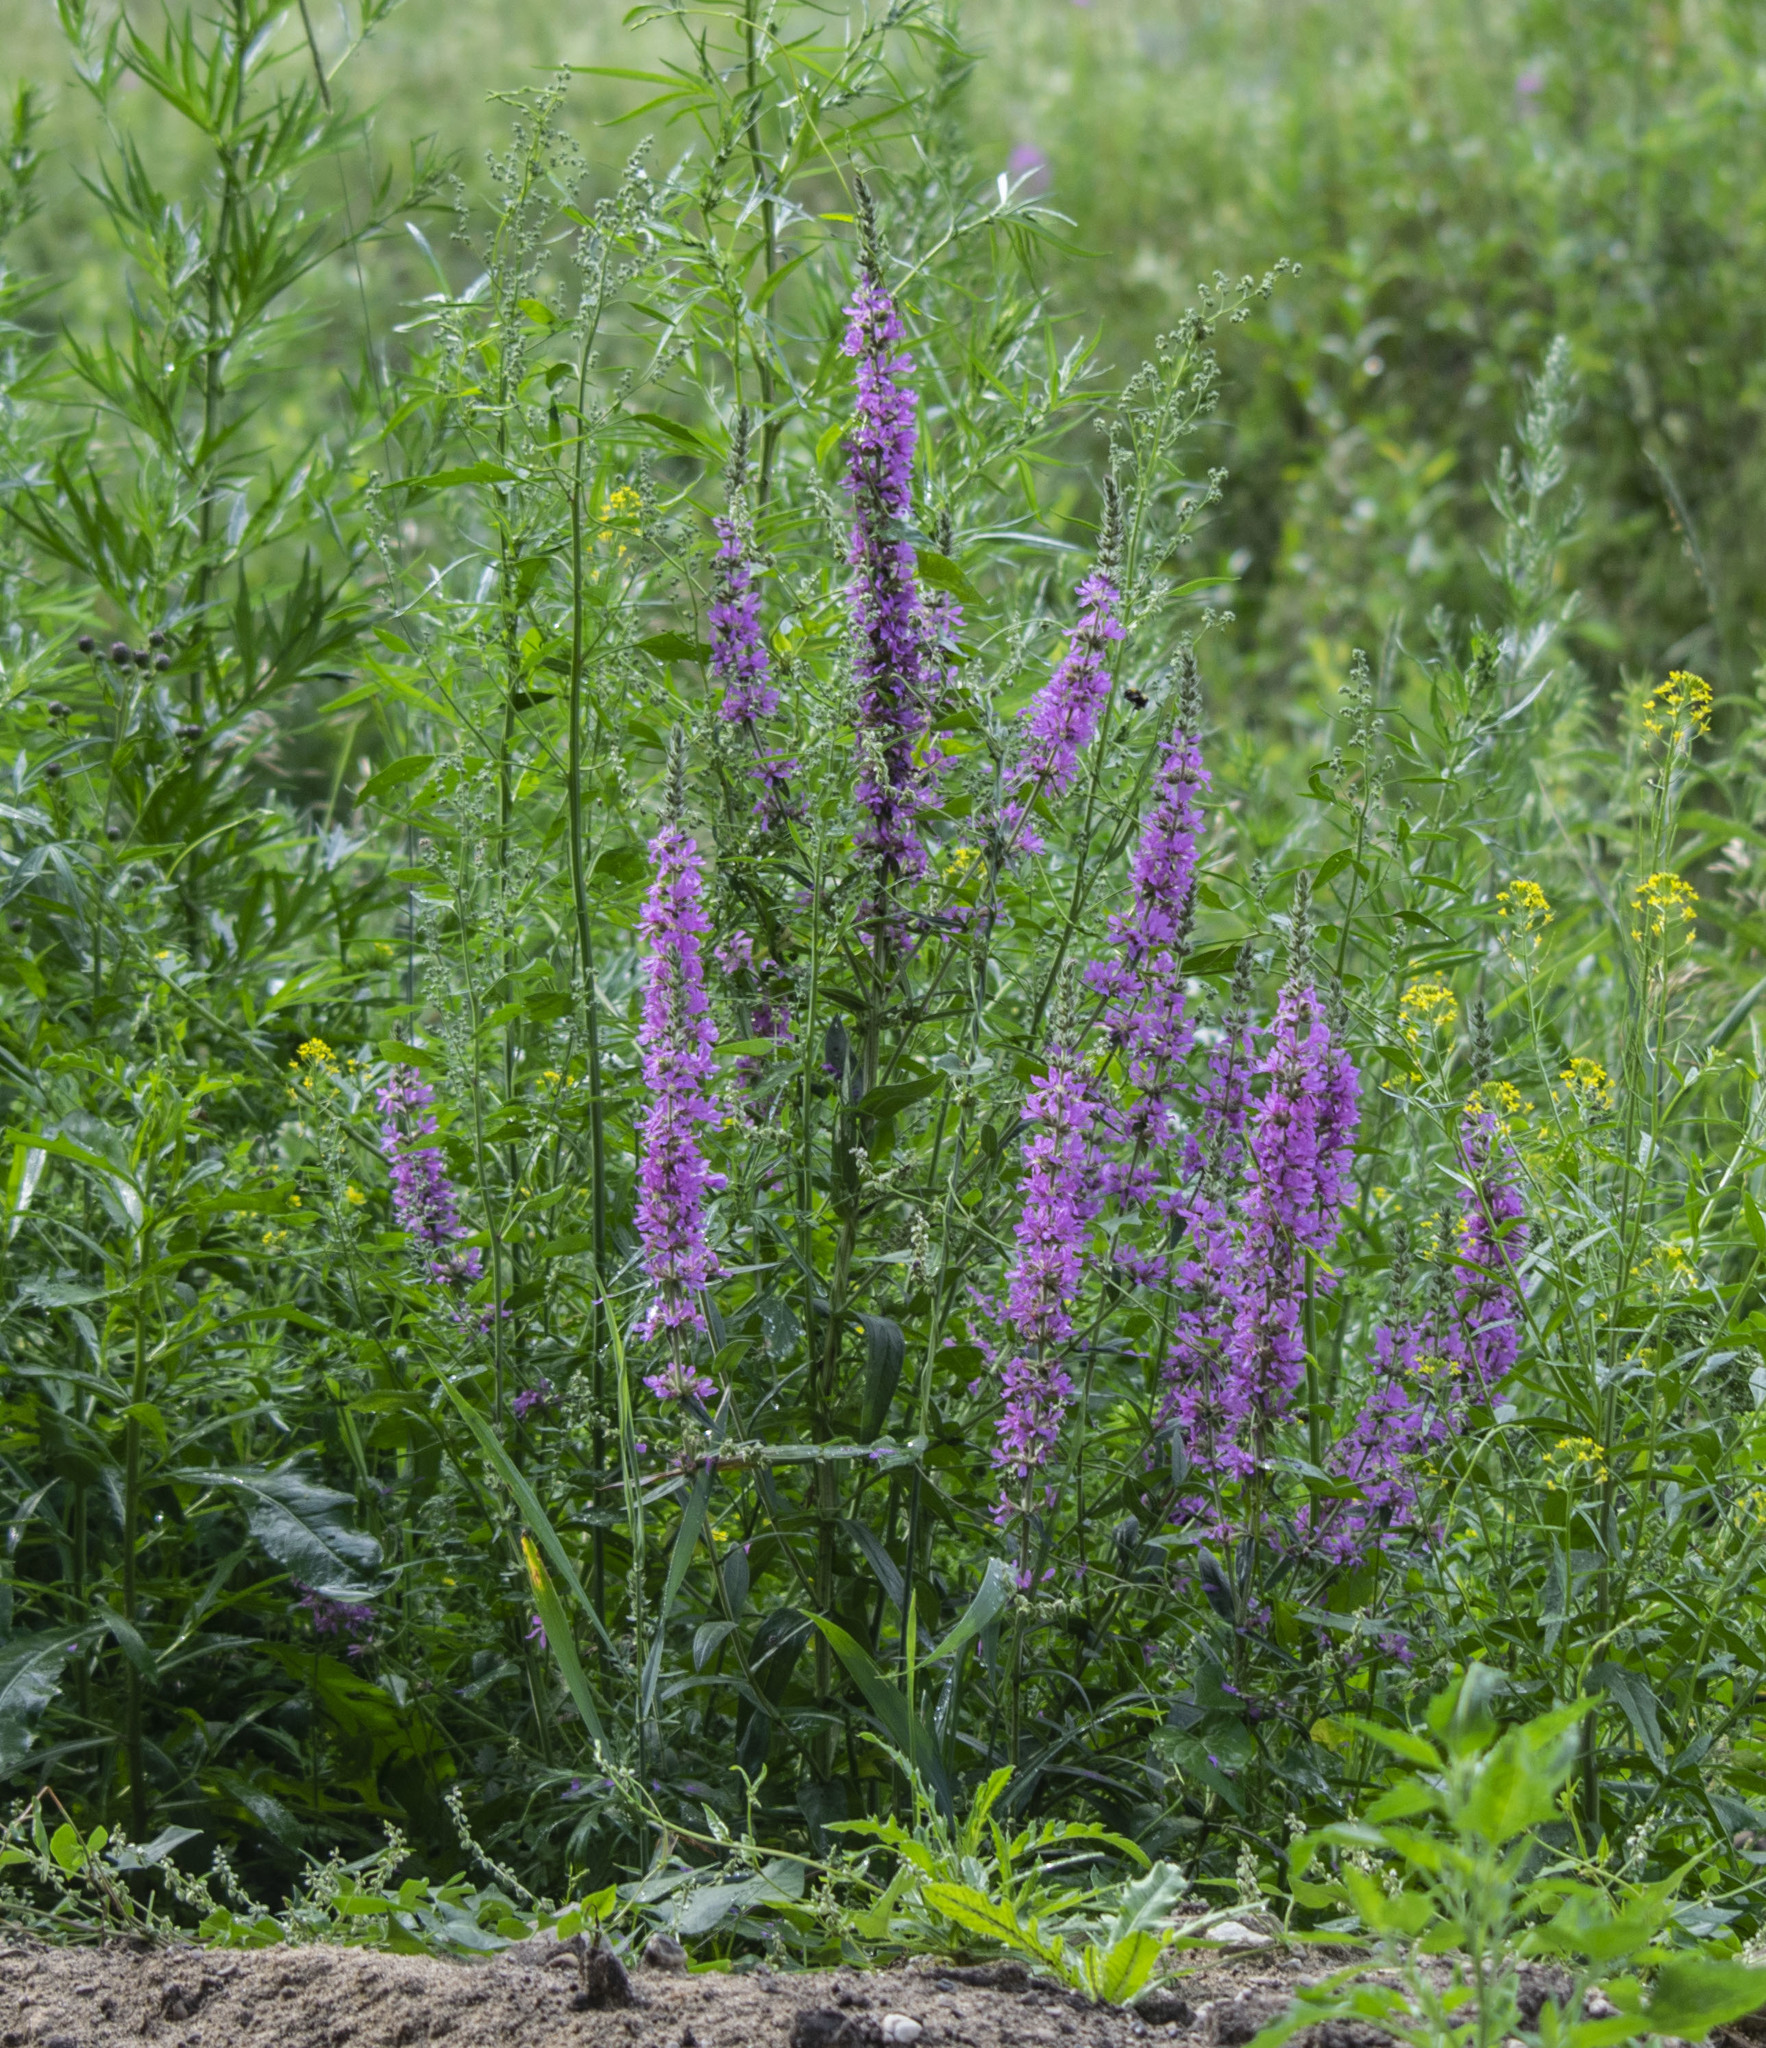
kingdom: Plantae
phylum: Tracheophyta
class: Magnoliopsida
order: Myrtales
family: Lythraceae
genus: Lythrum
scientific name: Lythrum salicaria
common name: Purple loosestrife
